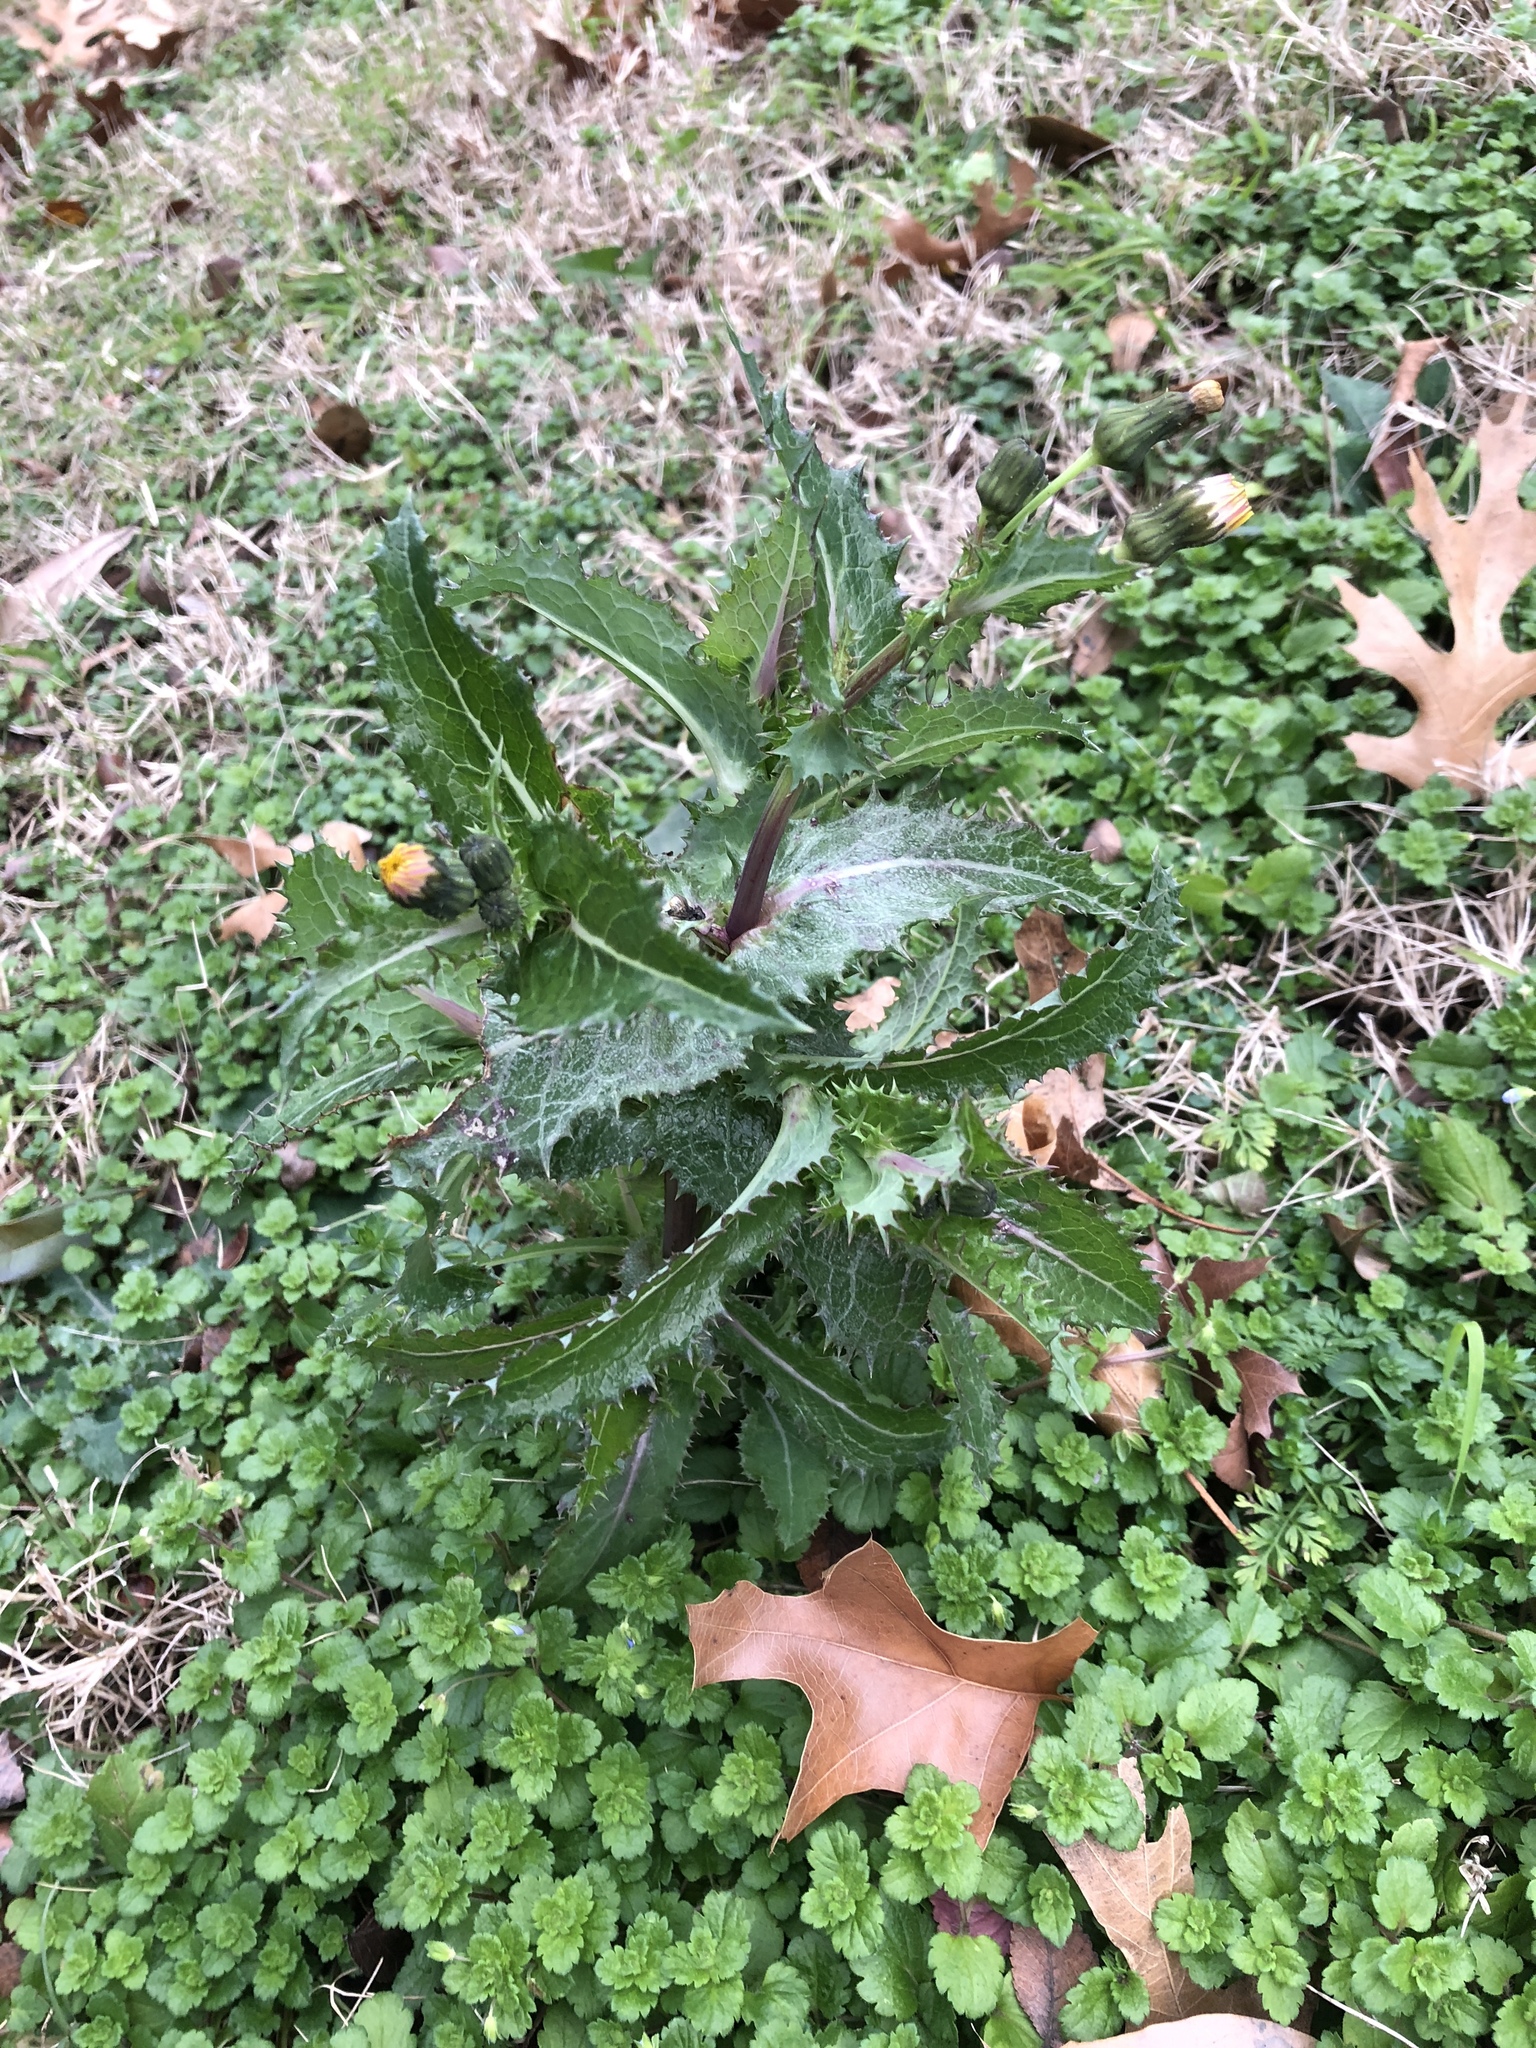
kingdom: Plantae
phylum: Tracheophyta
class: Magnoliopsida
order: Asterales
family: Asteraceae
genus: Sonchus
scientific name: Sonchus asper
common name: Prickly sow-thistle
